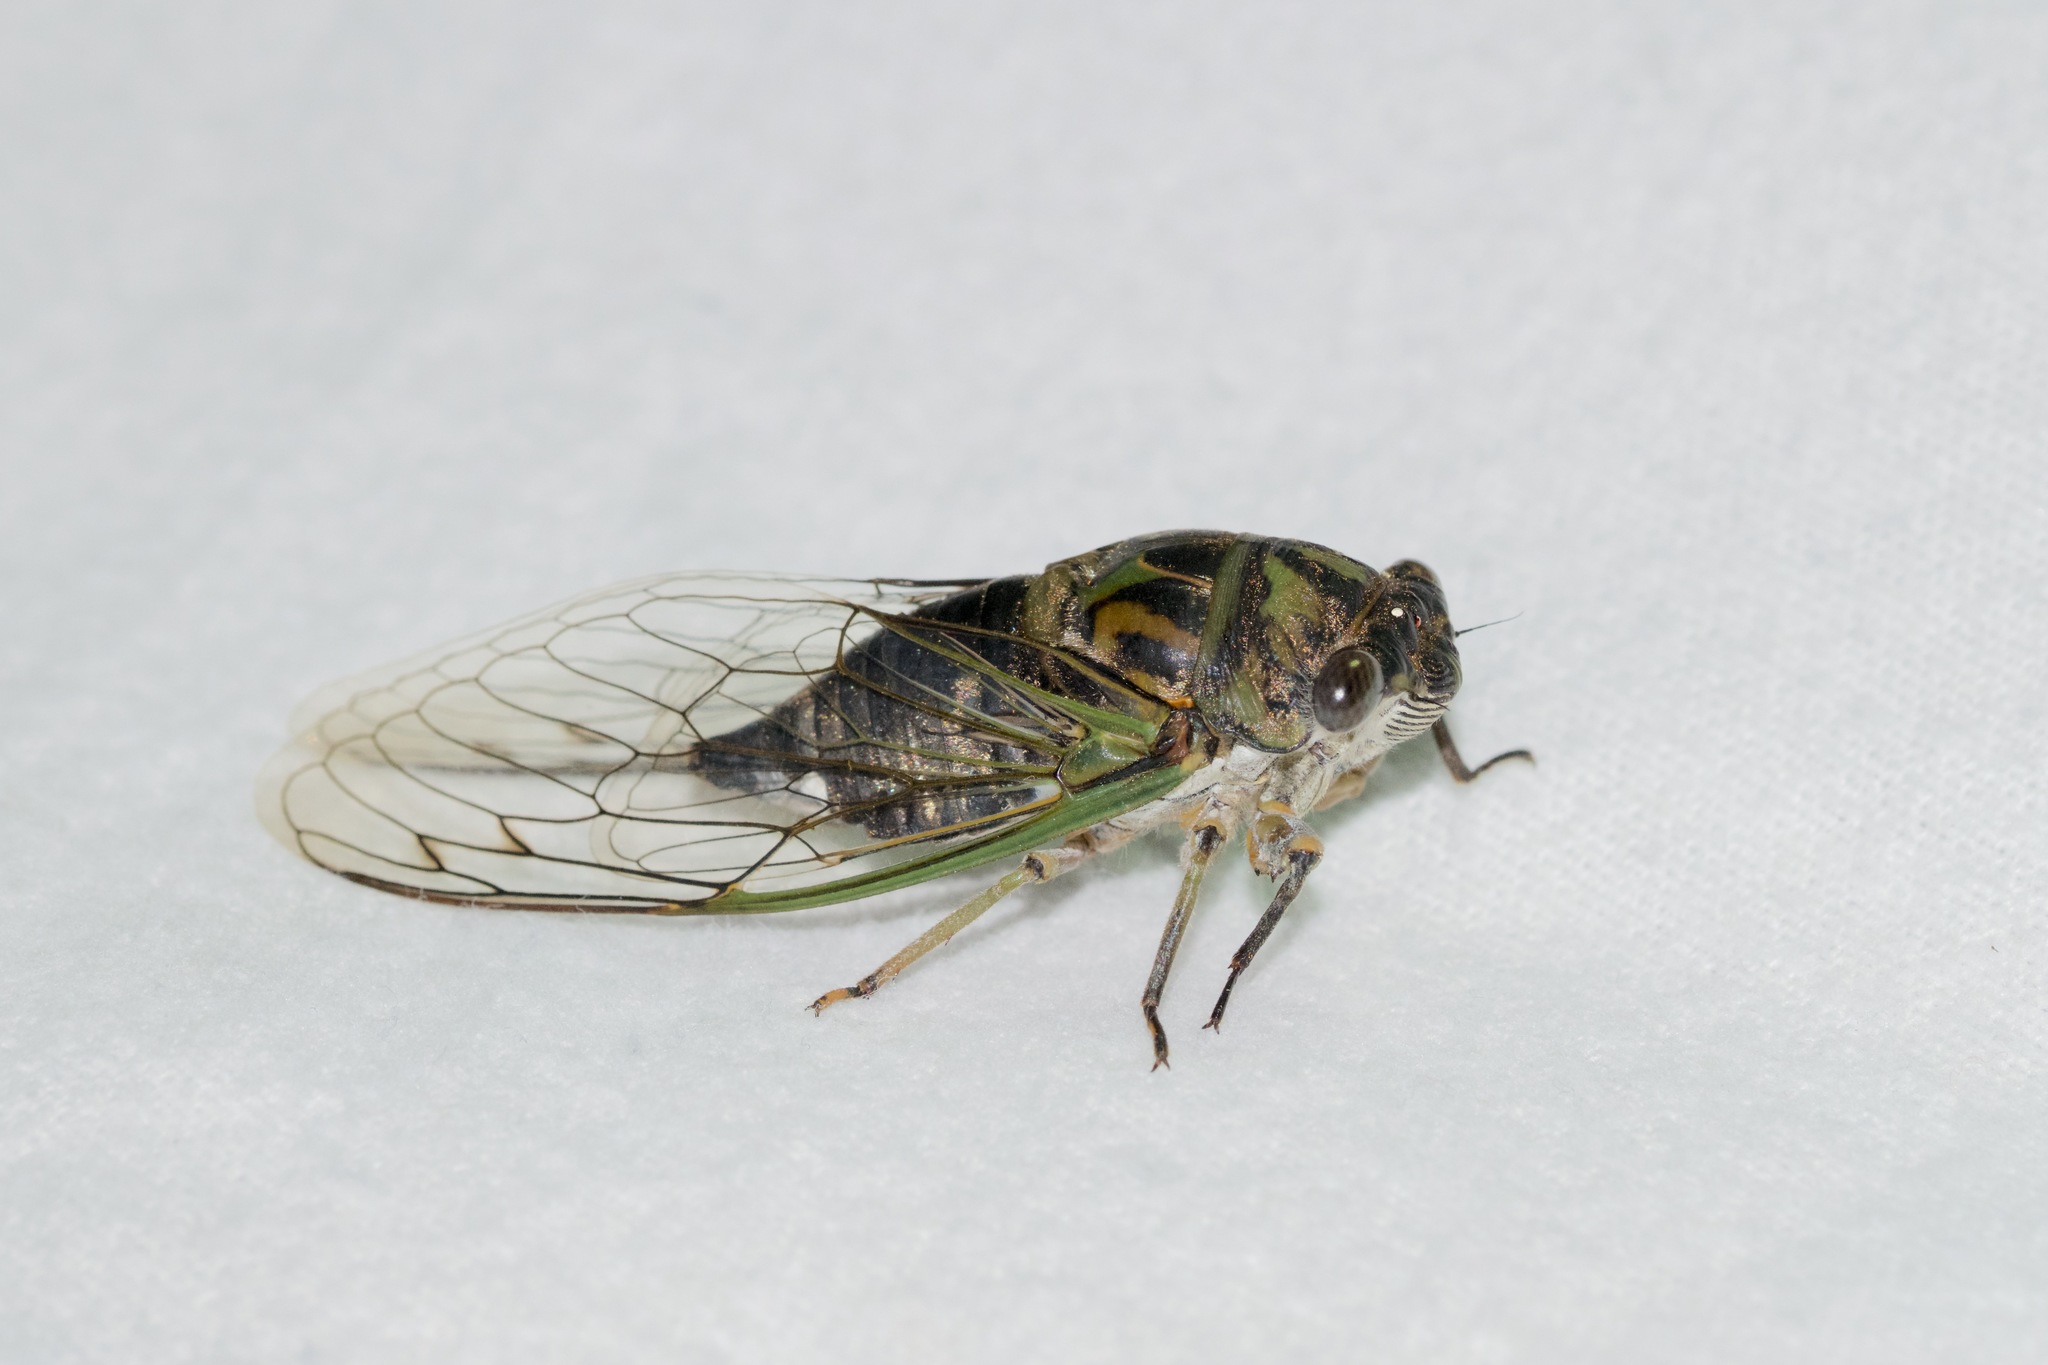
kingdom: Animalia
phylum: Arthropoda
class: Insecta
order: Hemiptera
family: Cicadidae
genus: Neotibicen
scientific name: Neotibicen canicularis
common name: God-day cicada
